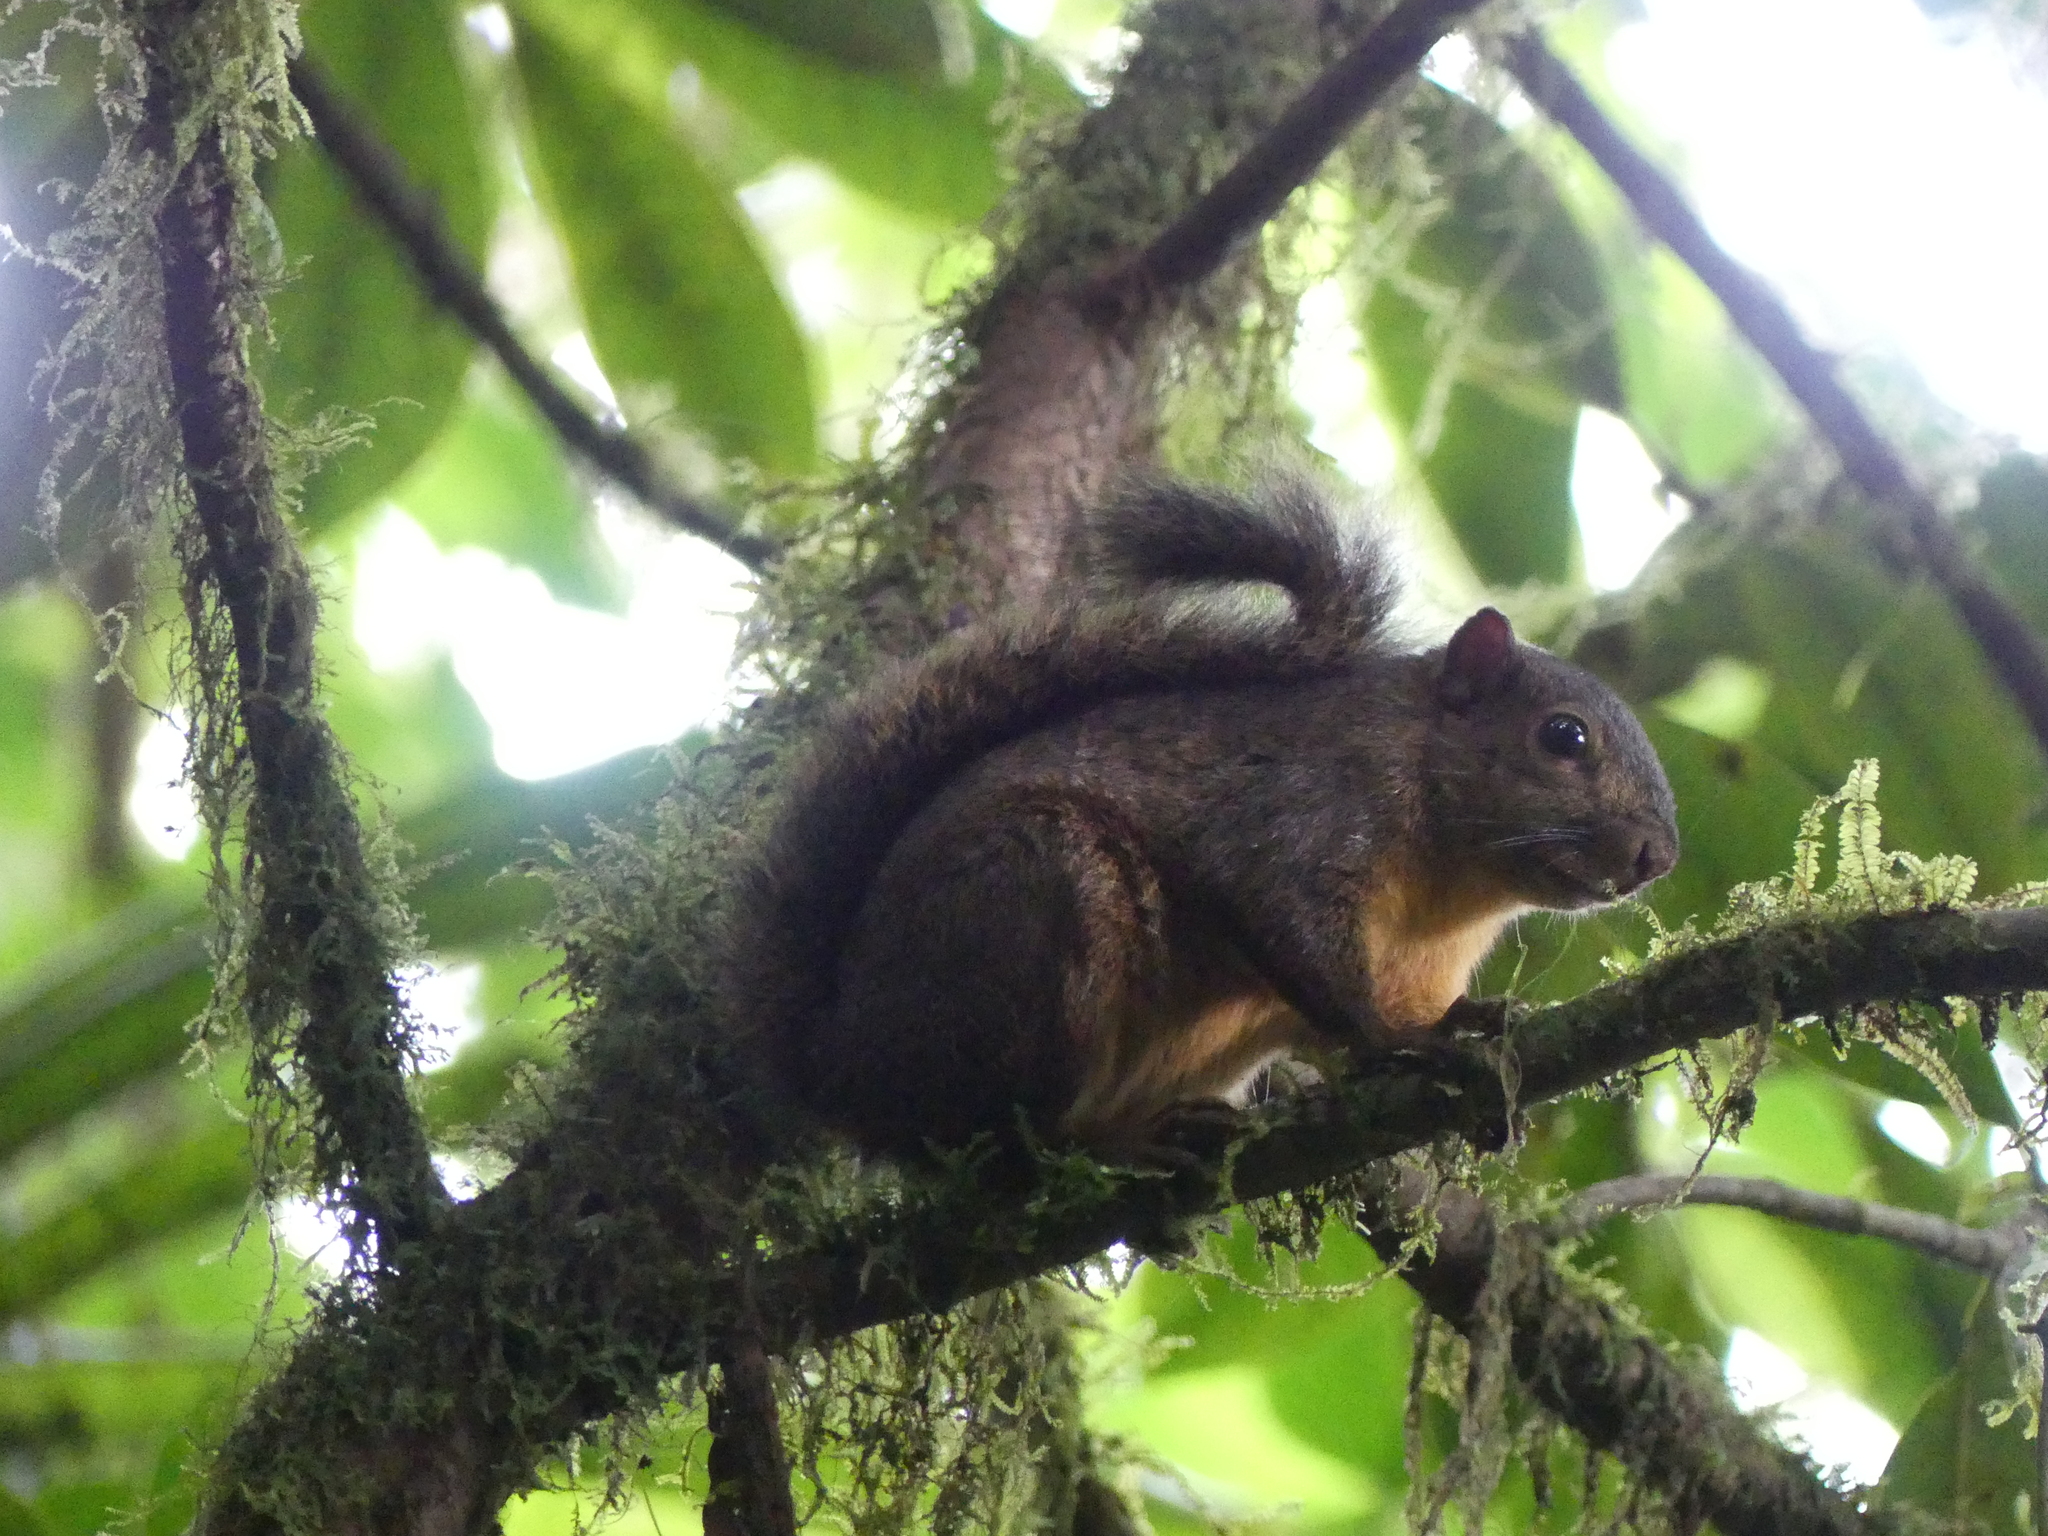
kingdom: Animalia
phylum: Chordata
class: Mammalia
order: Rodentia
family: Sciuridae
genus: Sciurus
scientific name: Sciurus granatensis
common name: Red-tailed squirrel
